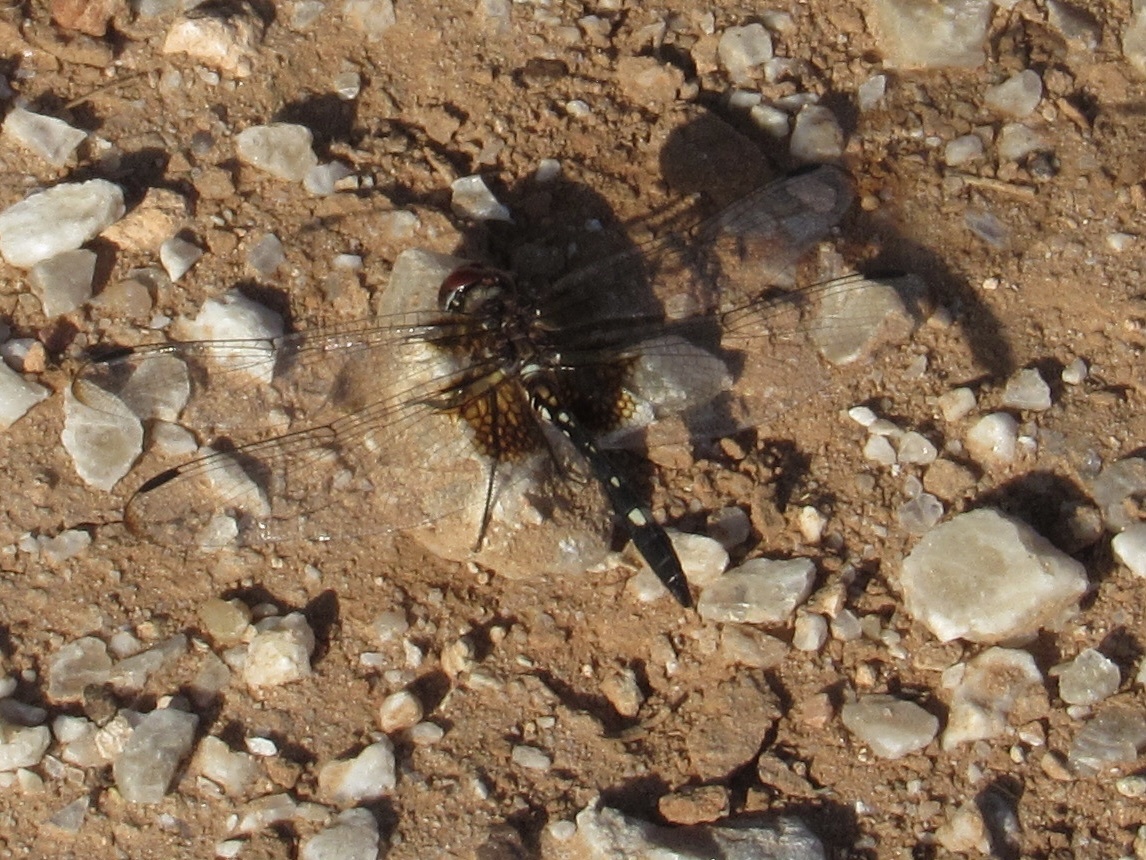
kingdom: Animalia
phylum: Arthropoda
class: Insecta
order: Odonata
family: Libellulidae
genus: Dythemis
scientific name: Dythemis fugax
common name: Checkered setwing
